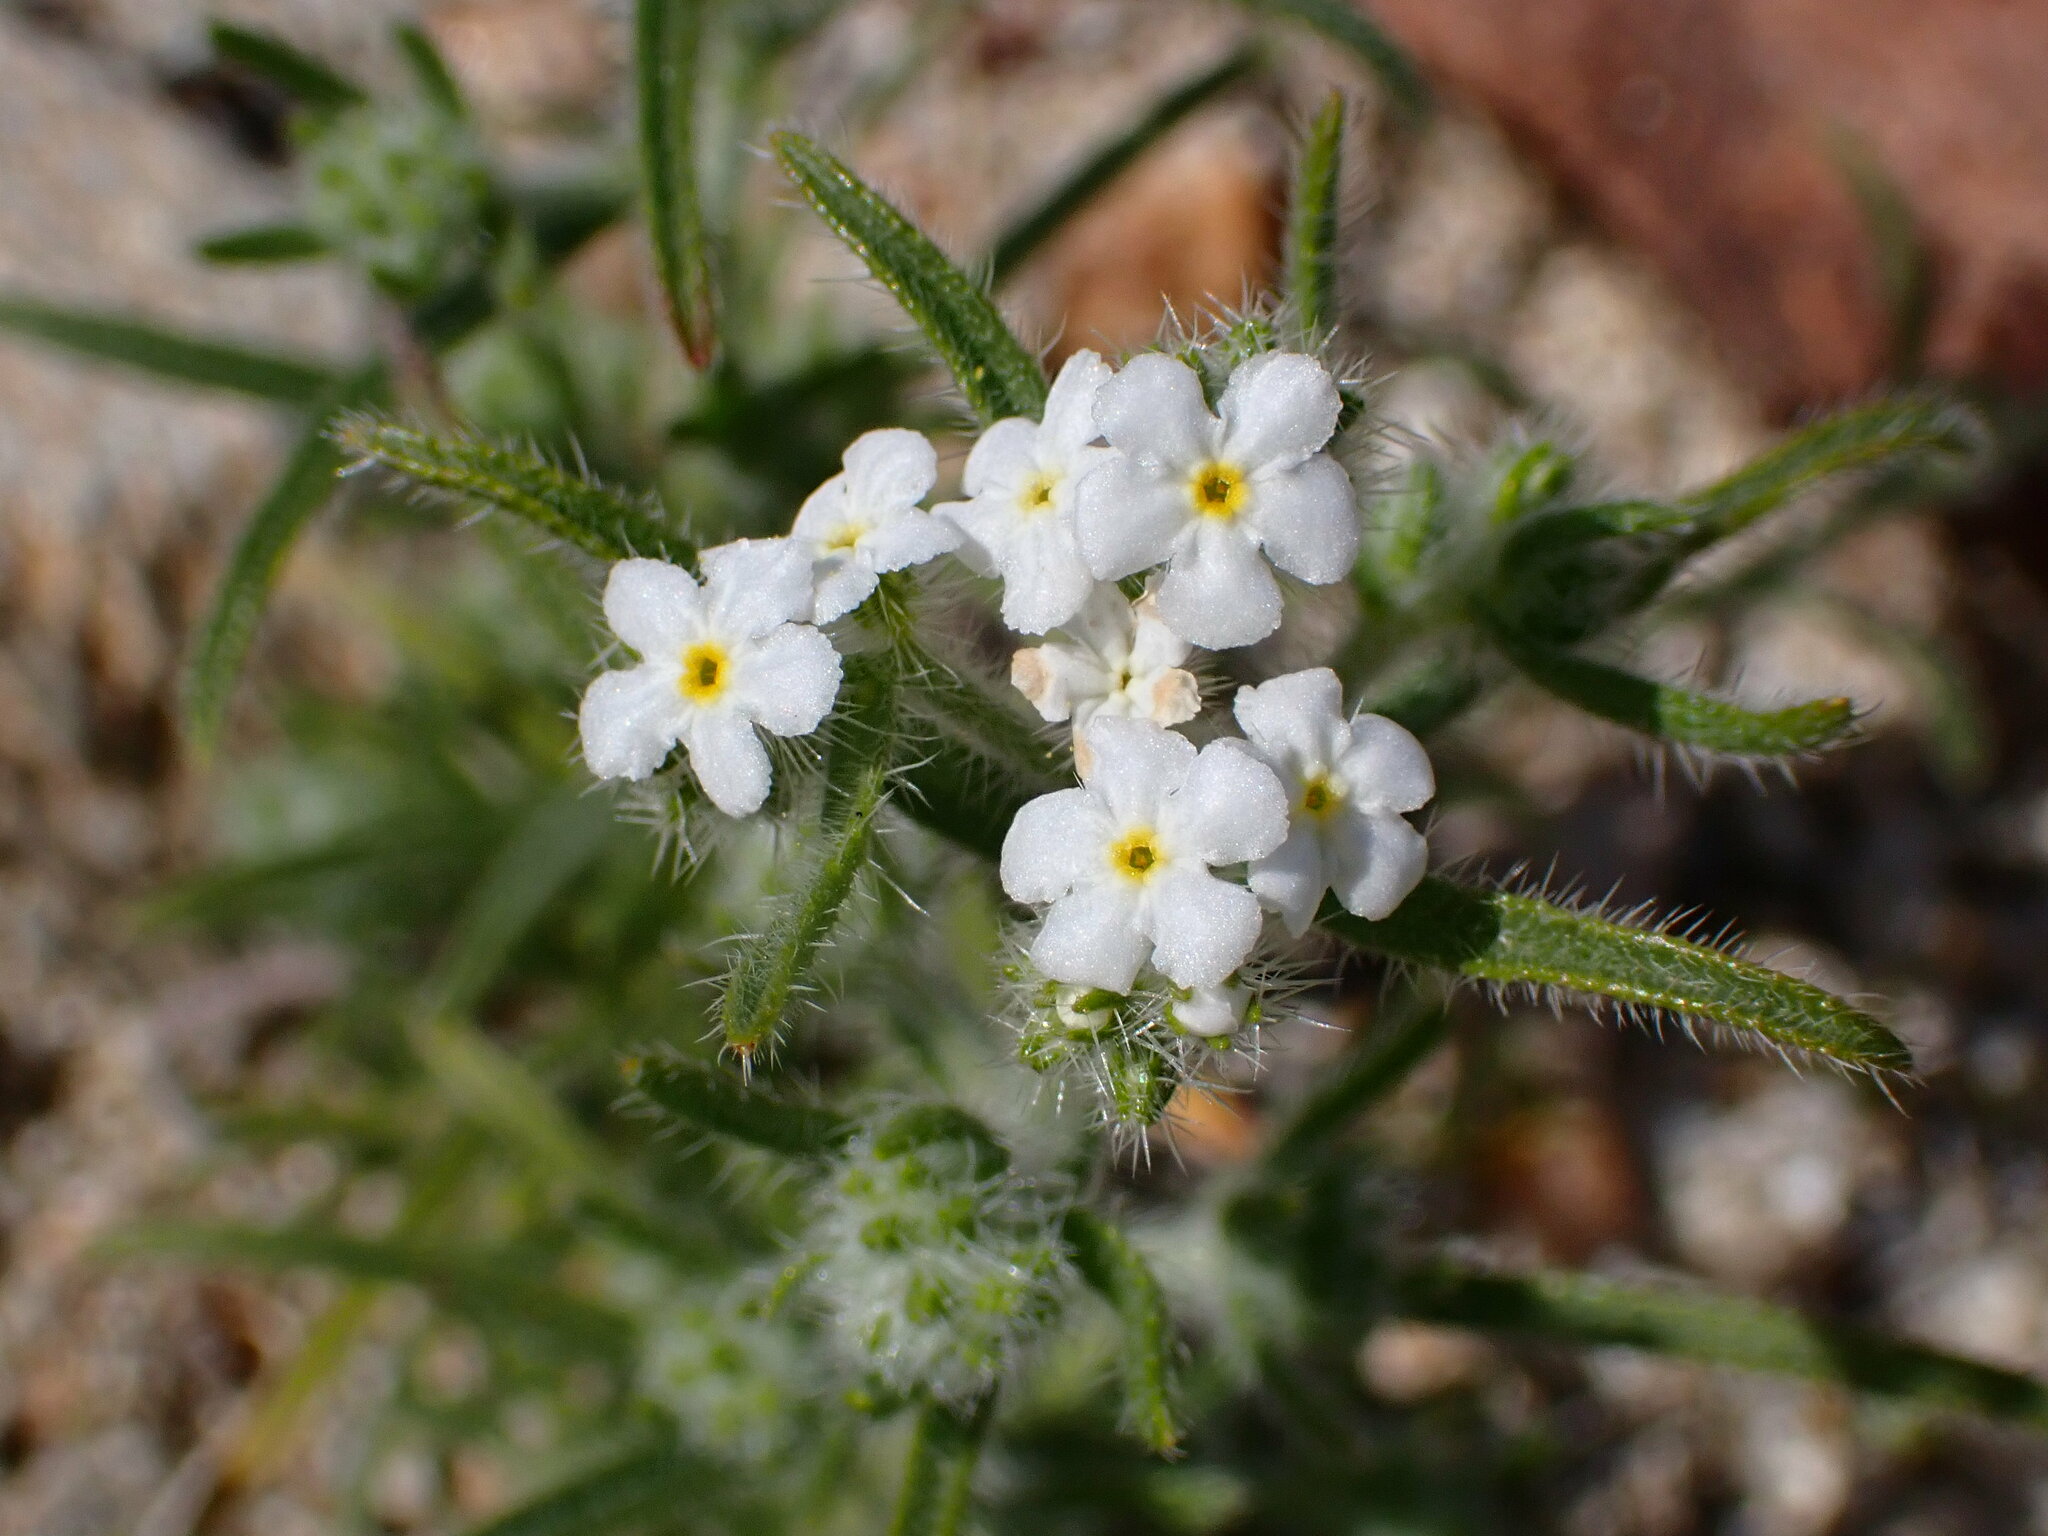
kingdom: Plantae
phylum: Tracheophyta
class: Magnoliopsida
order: Boraginales
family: Boraginaceae
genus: Johnstonella
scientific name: Johnstonella angustifolia
